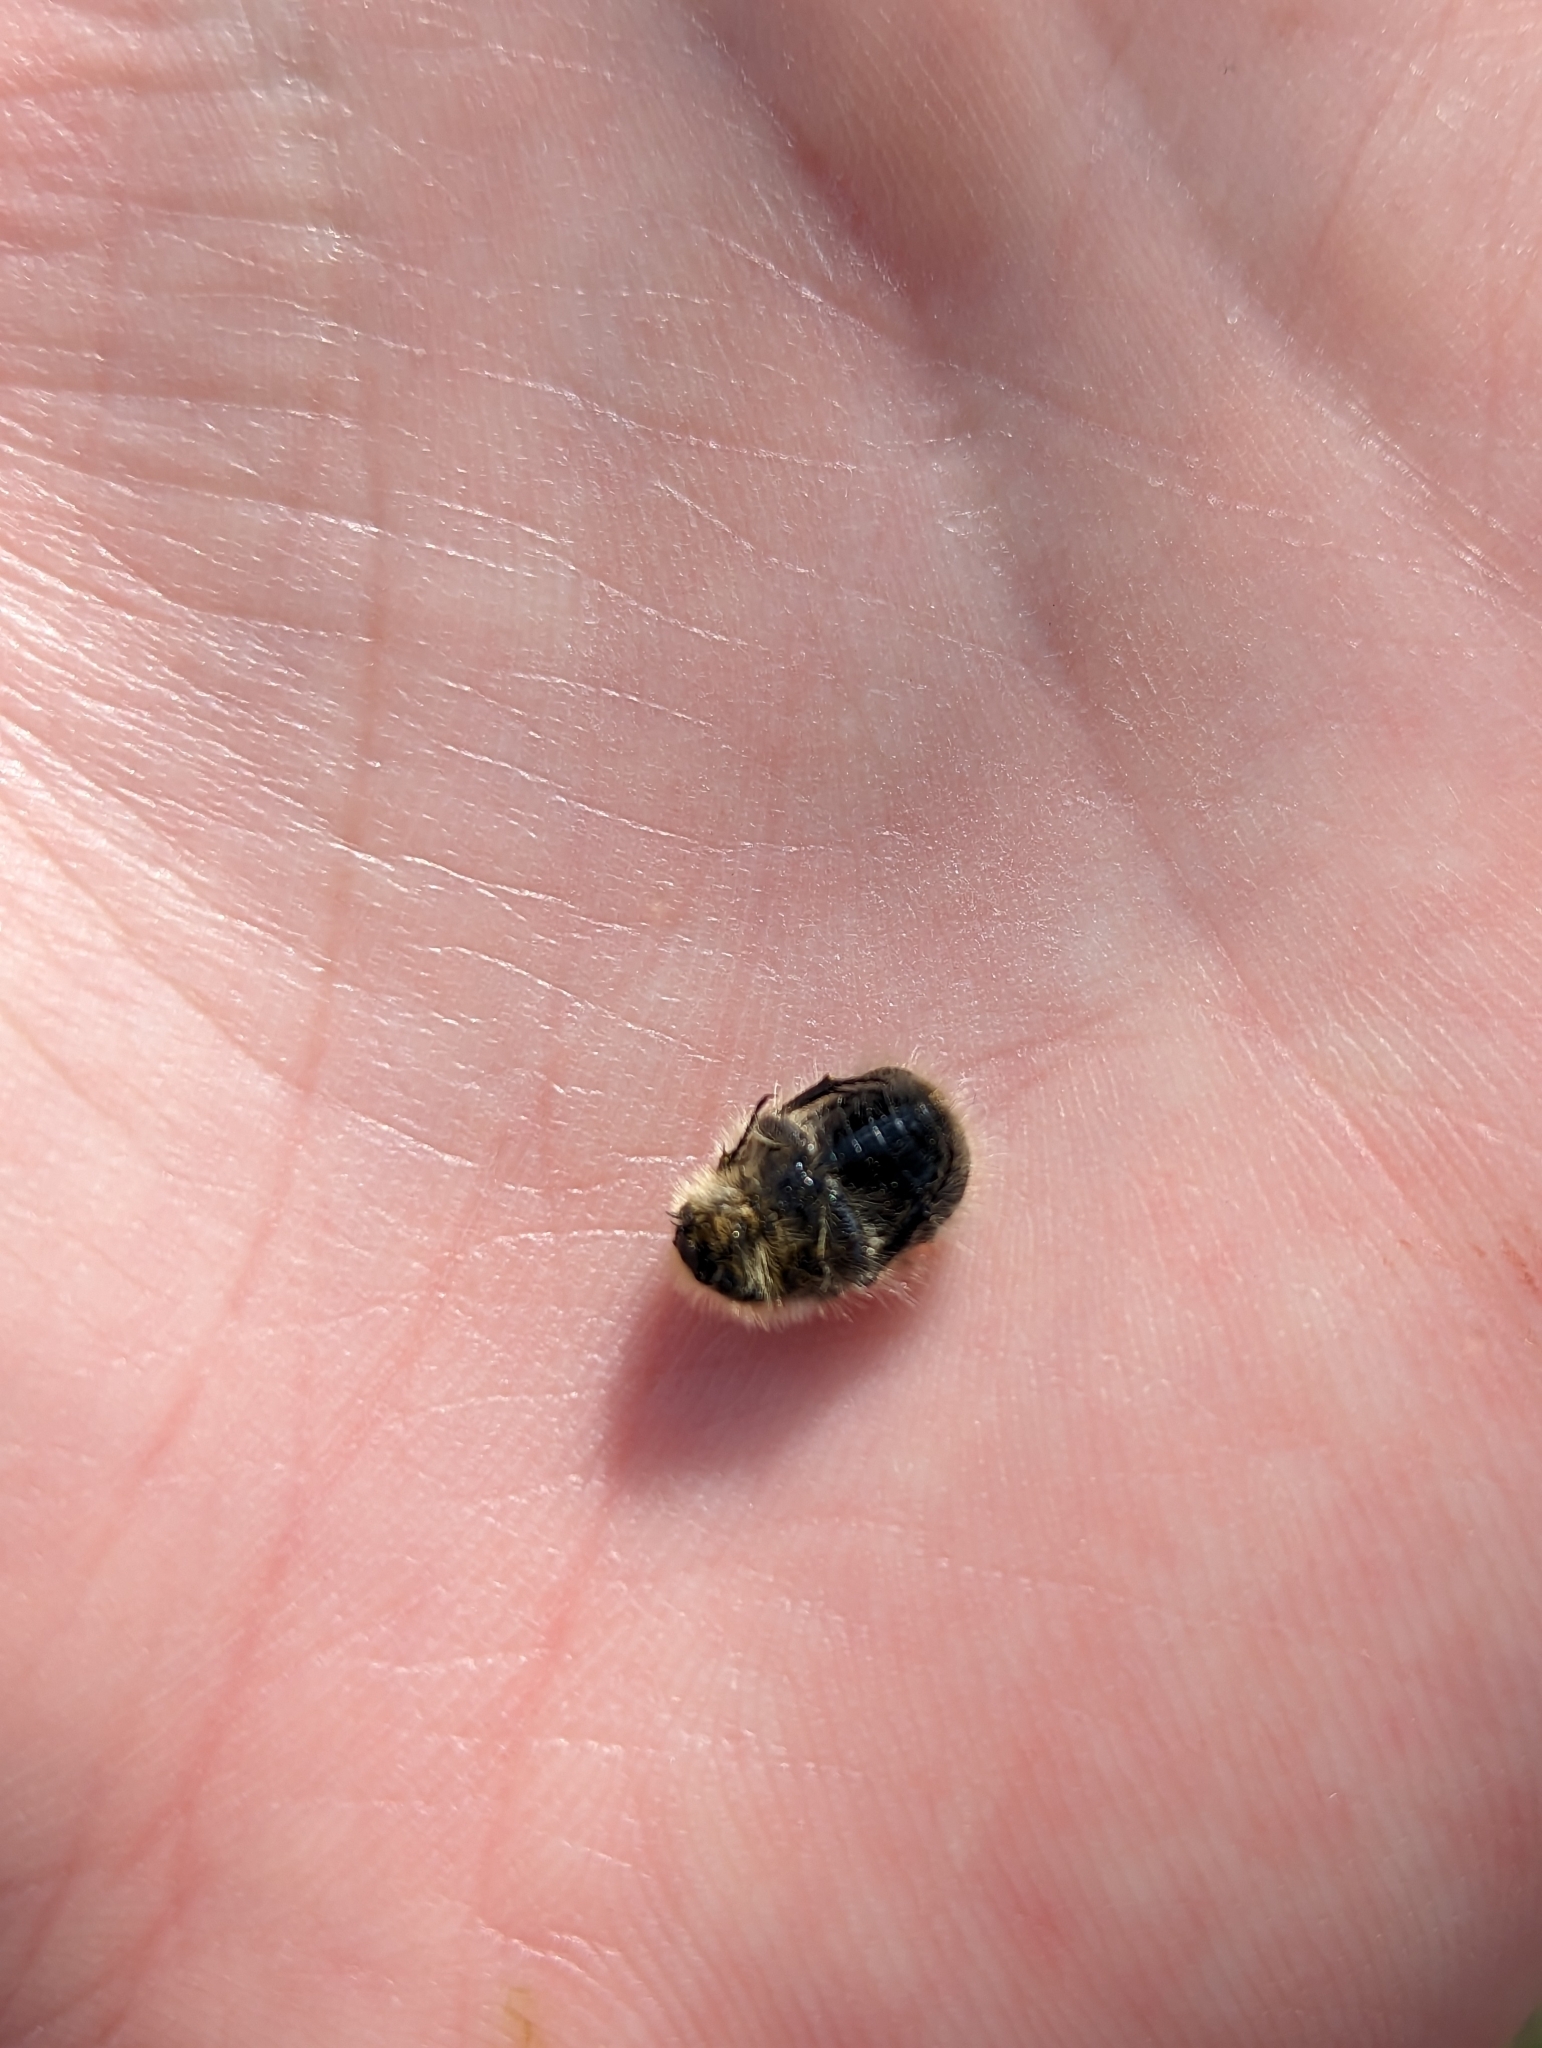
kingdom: Animalia
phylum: Arthropoda
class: Insecta
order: Coleoptera
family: Scarabaeidae
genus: Tropinota
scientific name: Tropinota hirta
